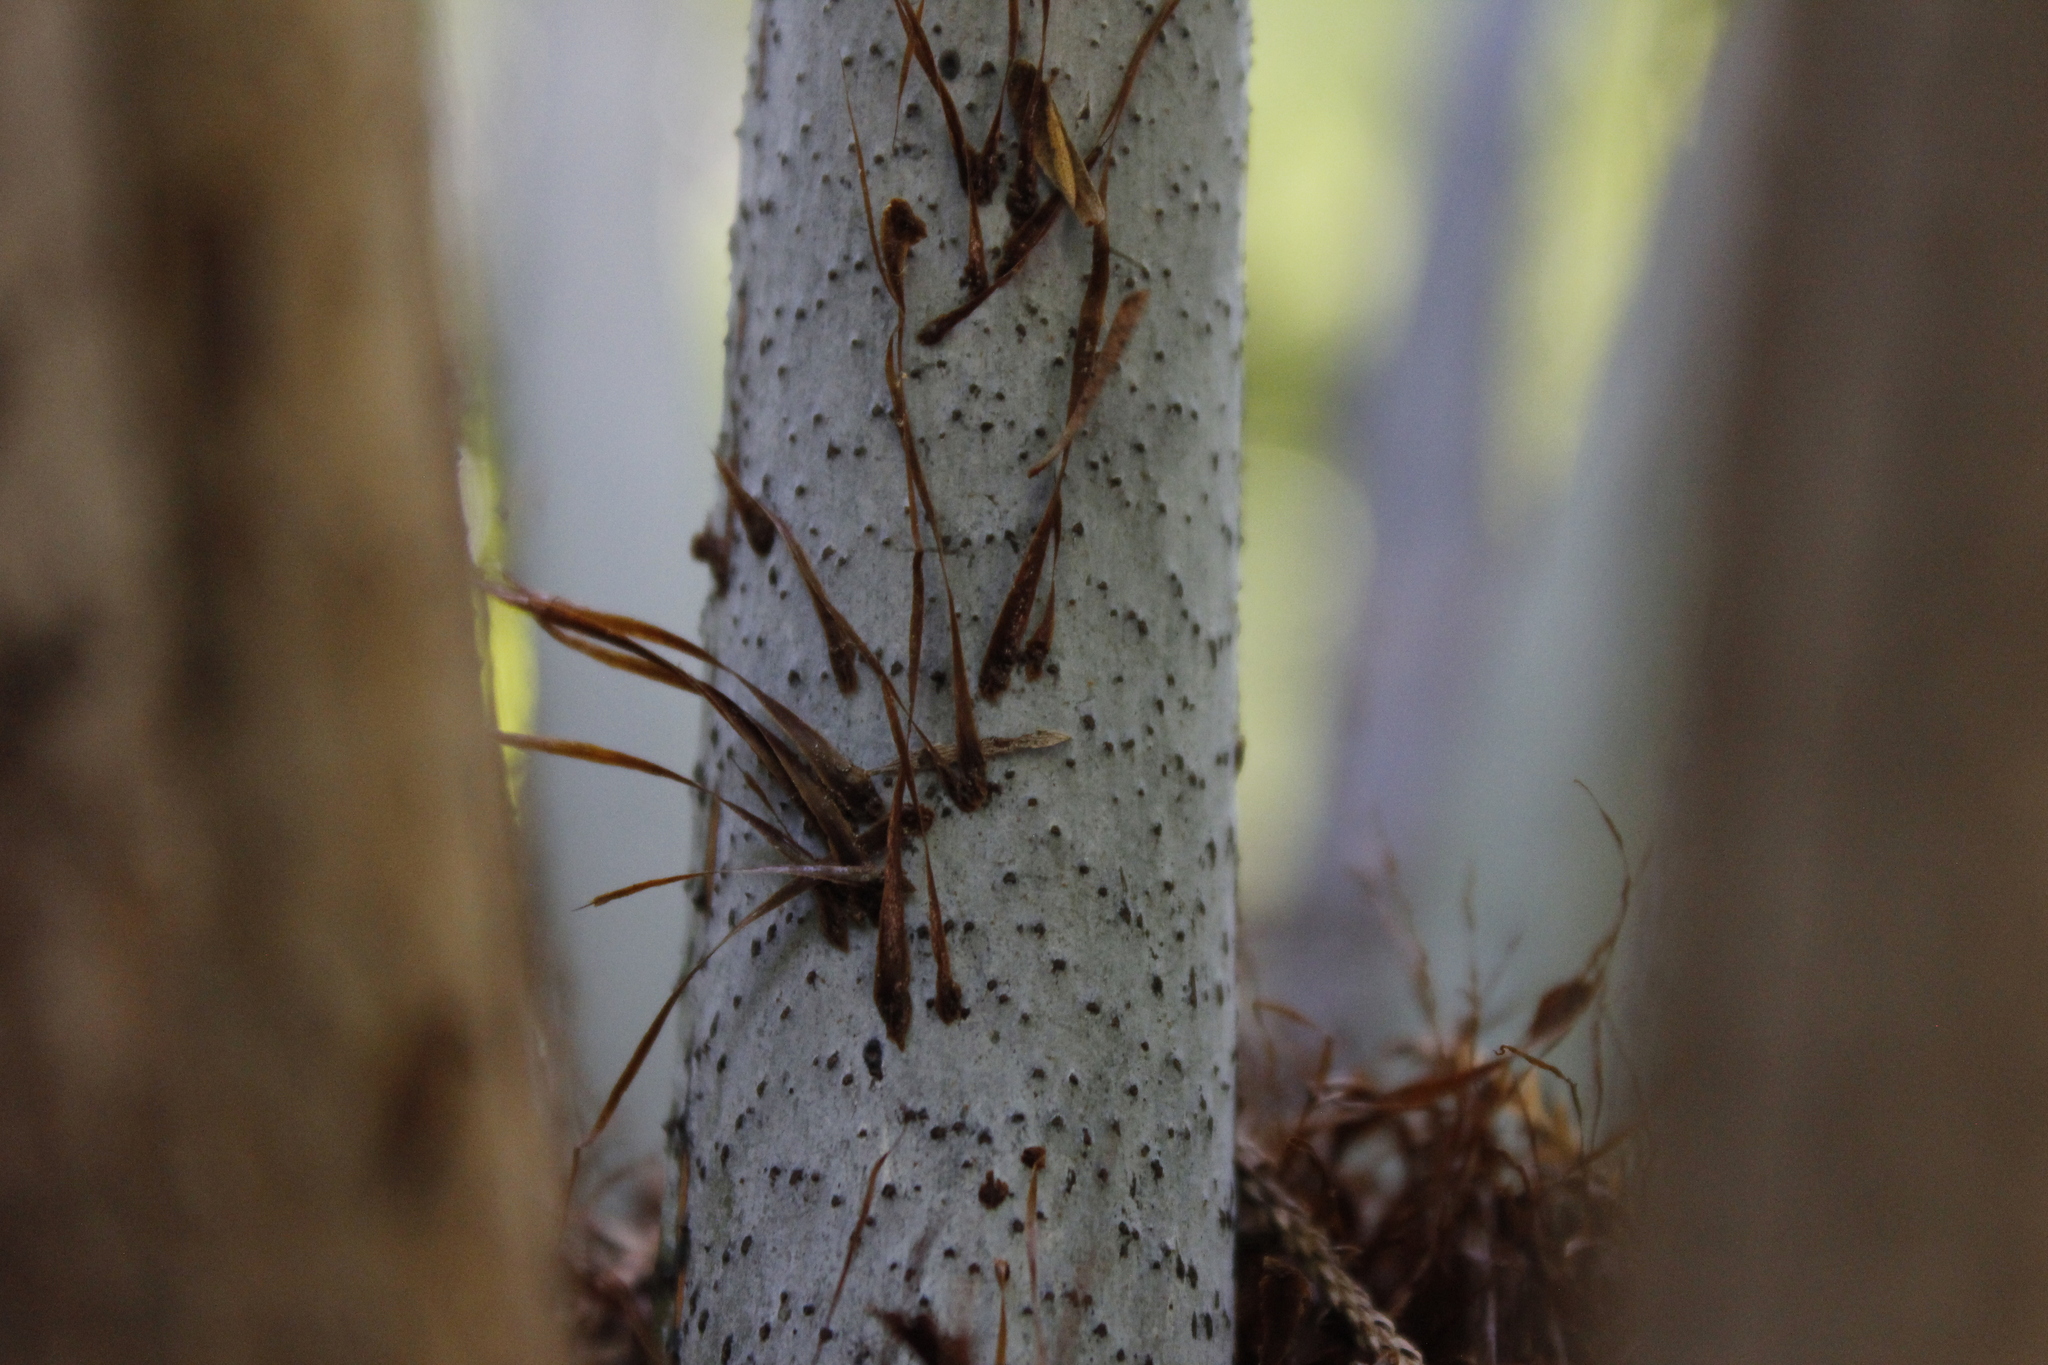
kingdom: Plantae
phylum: Tracheophyta
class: Polypodiopsida
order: Cyatheales
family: Cyatheaceae
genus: Alsophila
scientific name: Alsophila dealbata
